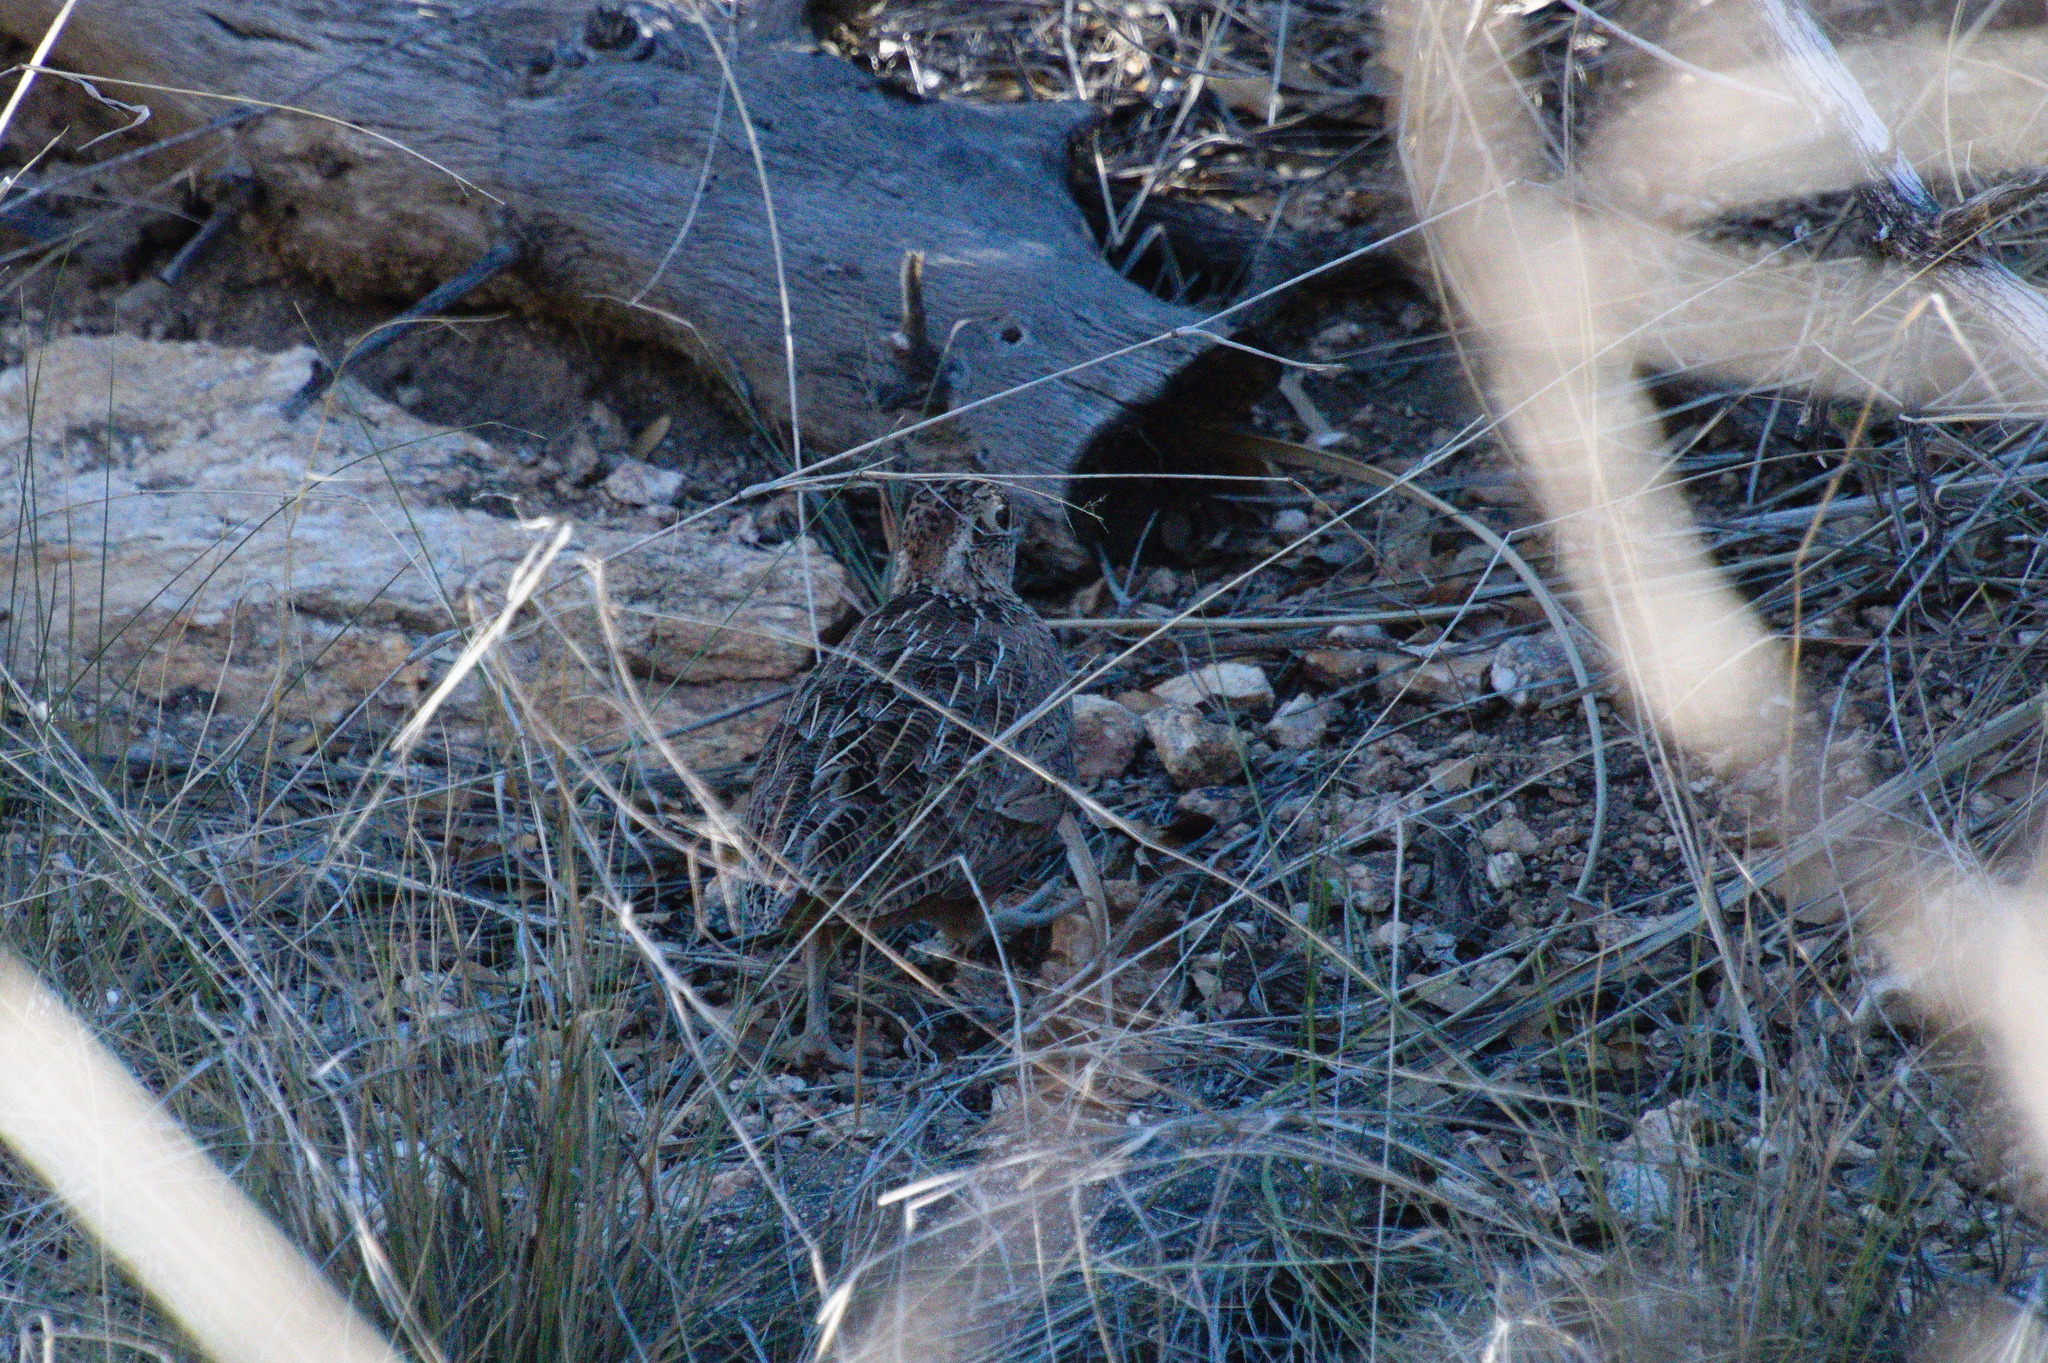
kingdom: Animalia
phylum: Chordata
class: Aves
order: Galliformes
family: Odontophoridae
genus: Cyrtonyx
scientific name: Cyrtonyx montezumae
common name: Montezuma quail
